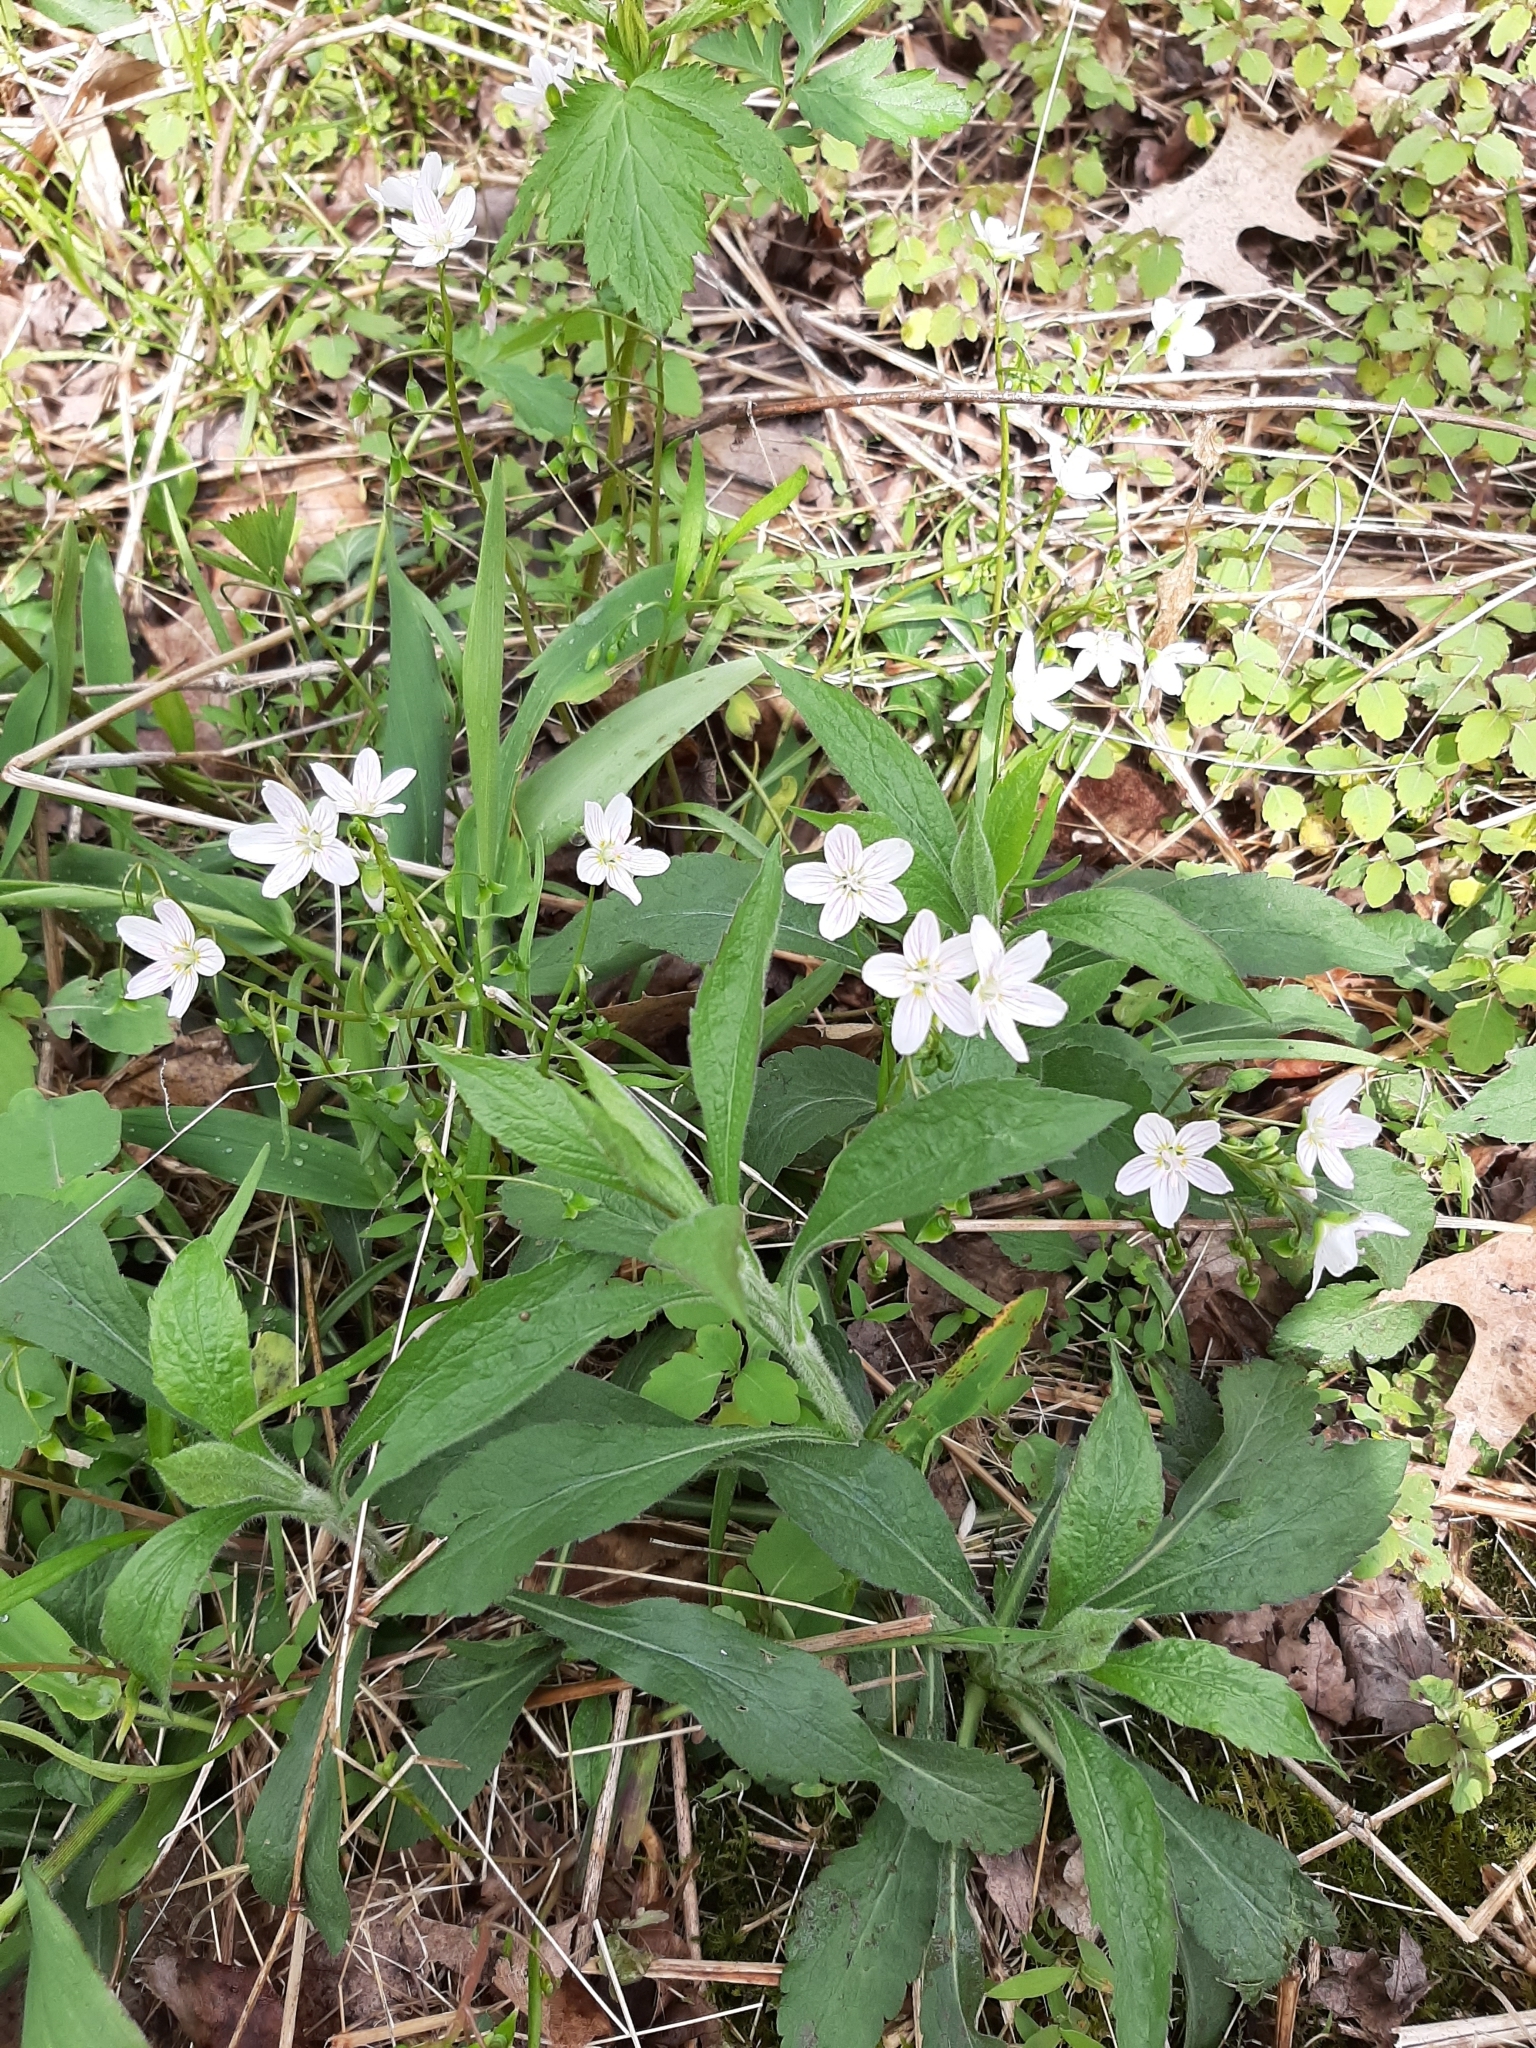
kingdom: Plantae
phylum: Tracheophyta
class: Magnoliopsida
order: Caryophyllales
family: Montiaceae
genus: Claytonia
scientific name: Claytonia virginica
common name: Virginia springbeauty
